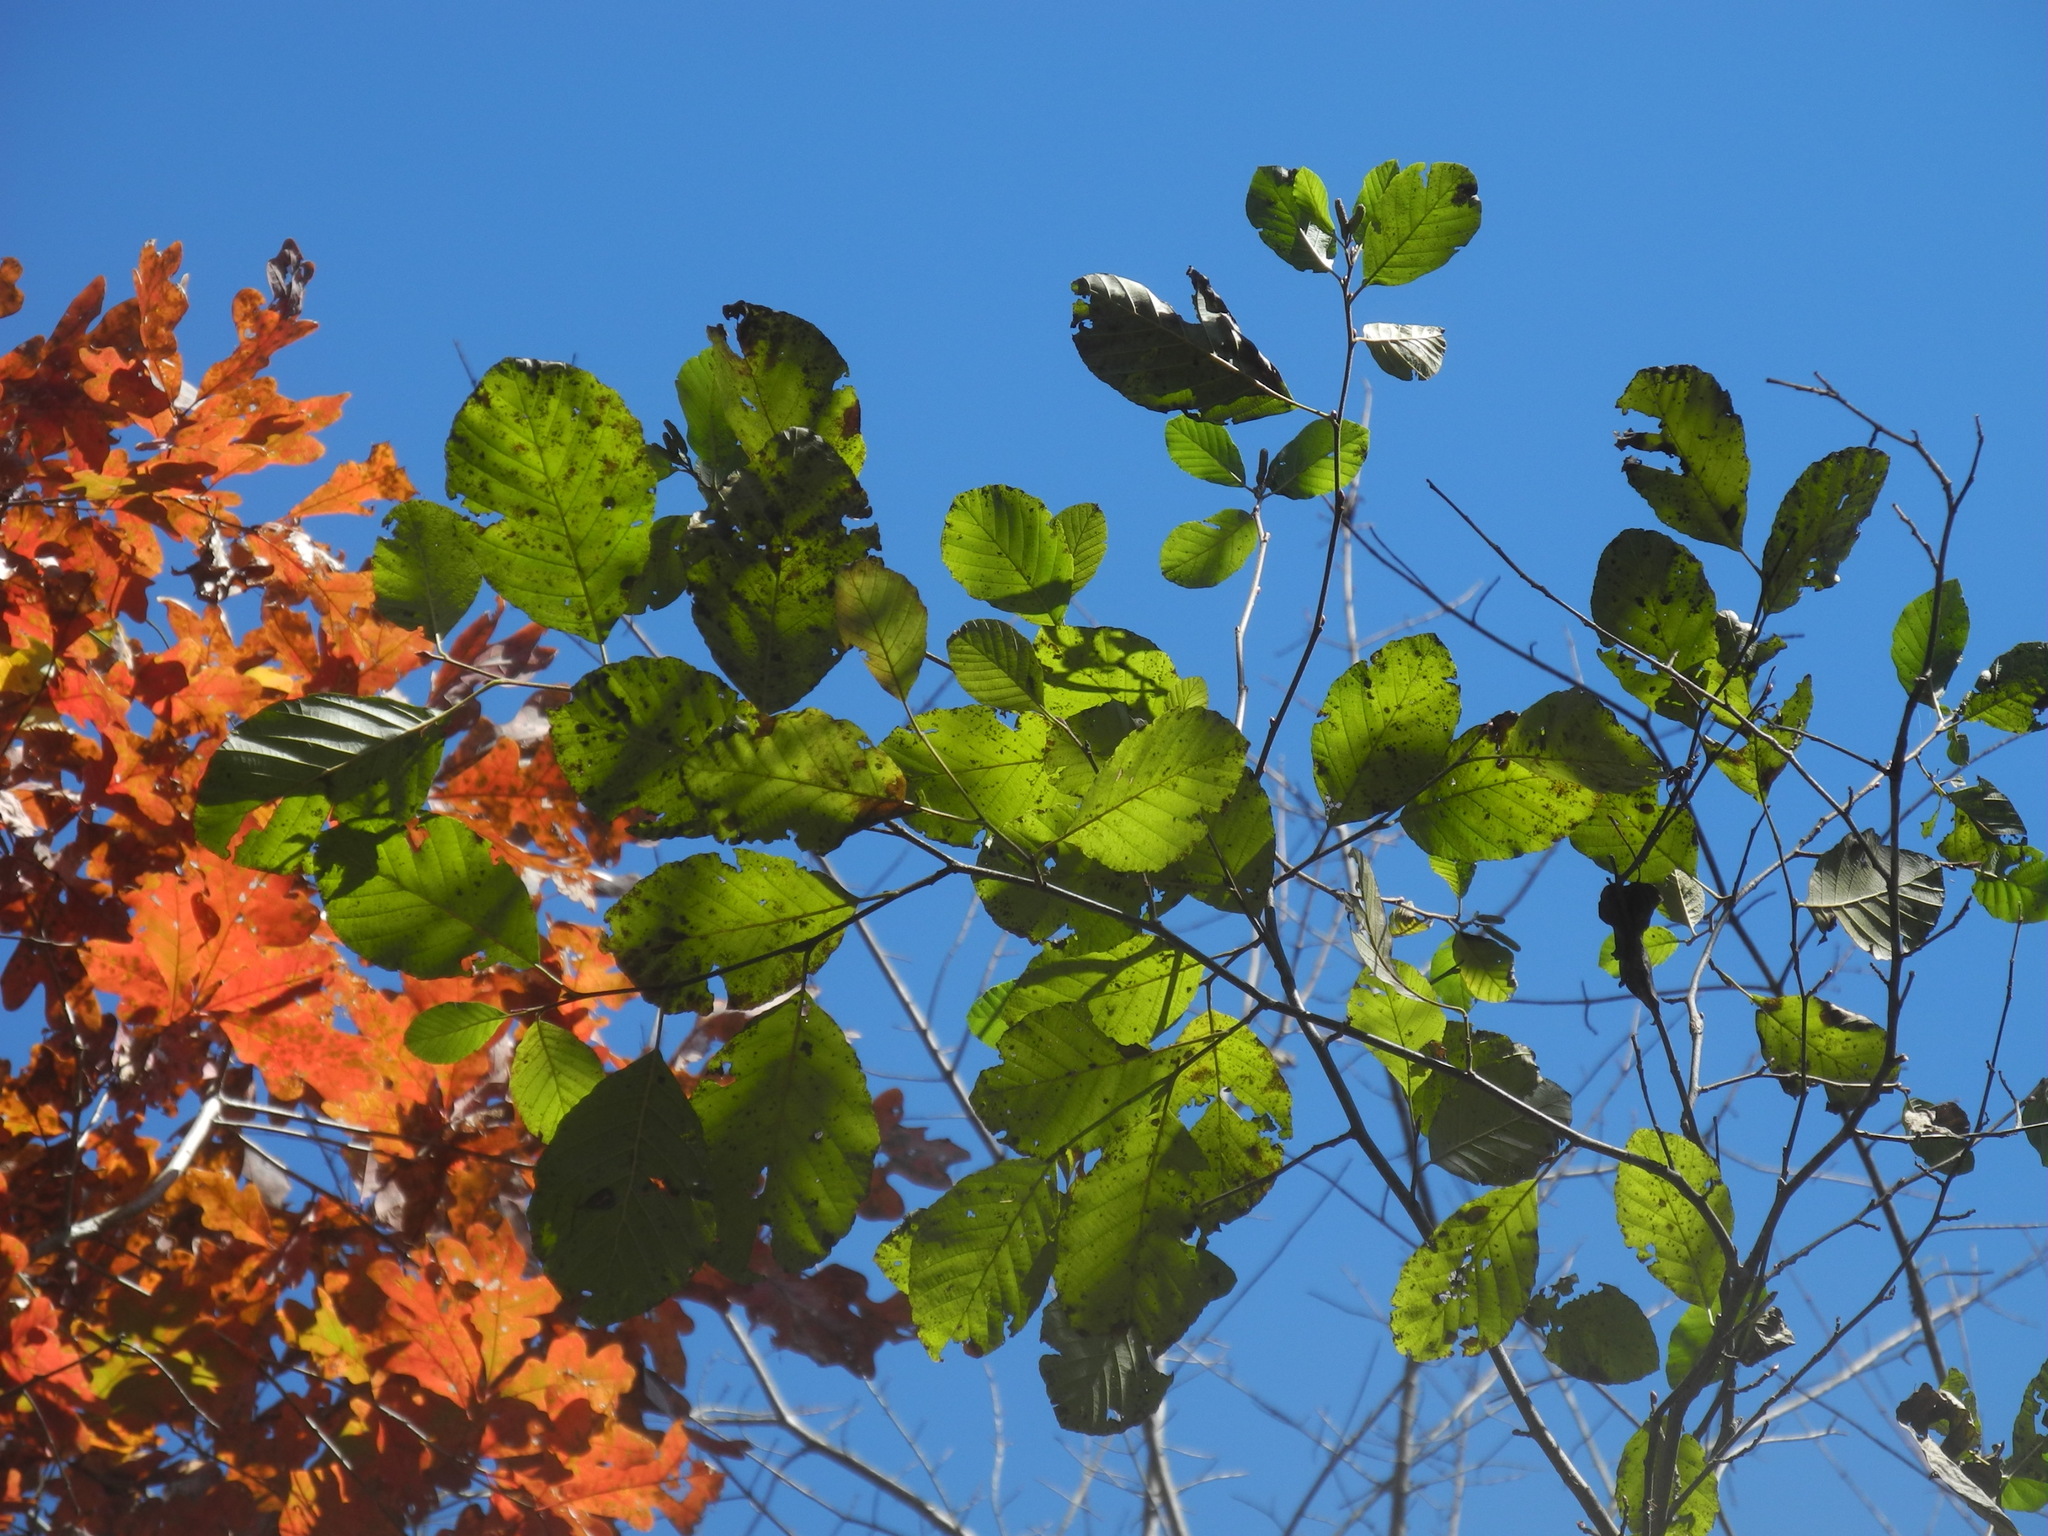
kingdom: Plantae
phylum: Tracheophyta
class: Magnoliopsida
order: Fagales
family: Betulaceae
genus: Alnus
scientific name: Alnus serrulata
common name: Hazel alder
